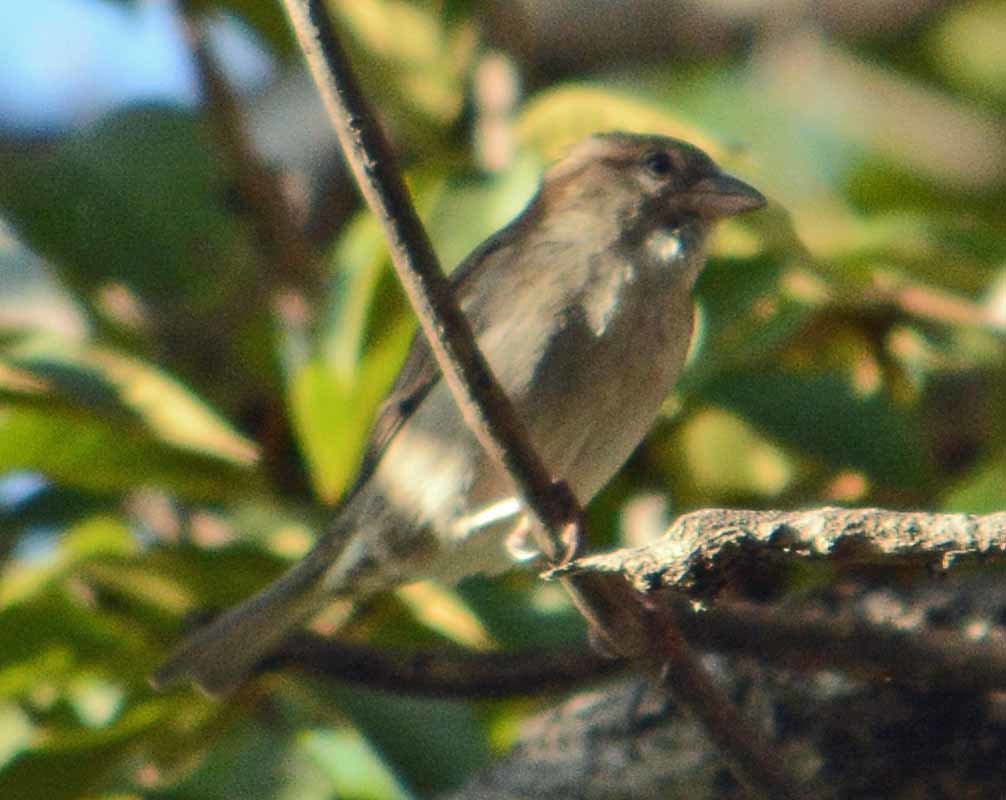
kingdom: Animalia
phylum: Chordata
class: Aves
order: Passeriformes
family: Passeridae
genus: Passer
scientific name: Passer domesticus
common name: House sparrow
